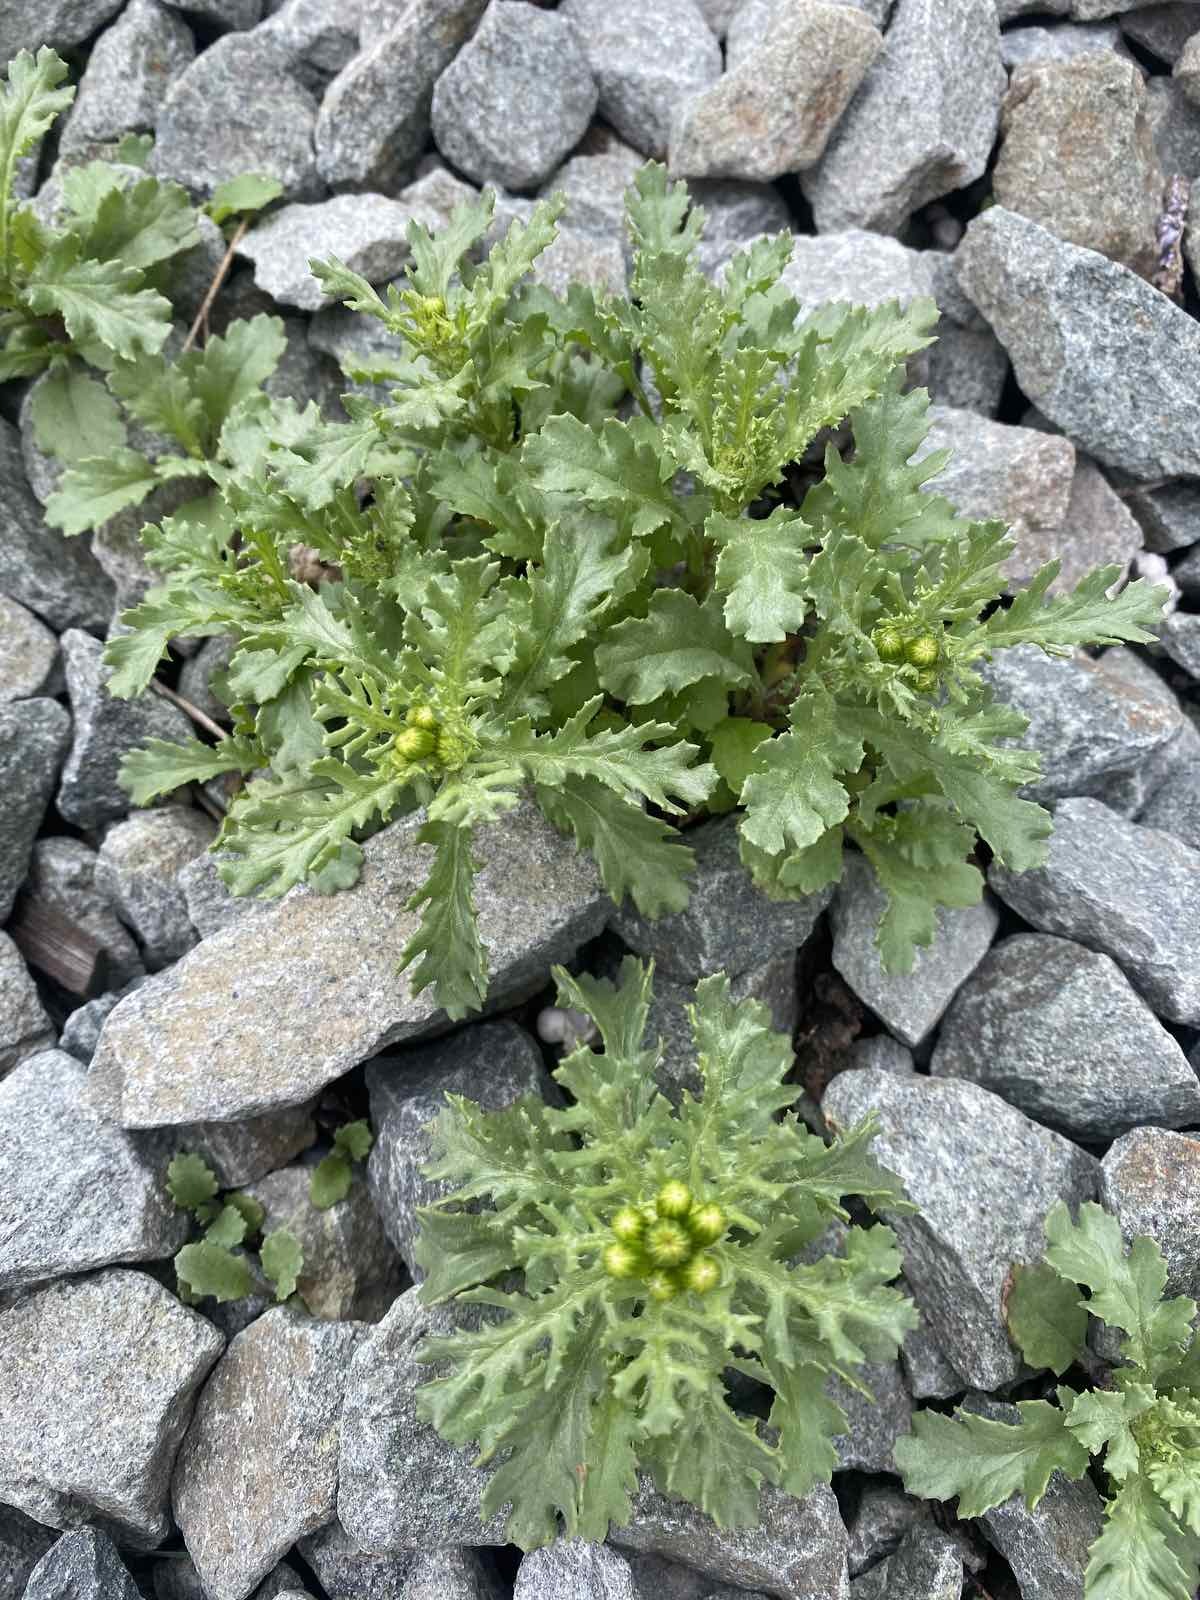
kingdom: Plantae
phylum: Tracheophyta
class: Magnoliopsida
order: Asterales
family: Asteraceae
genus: Senecio
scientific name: Senecio vulgaris
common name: Old-man-in-the-spring
